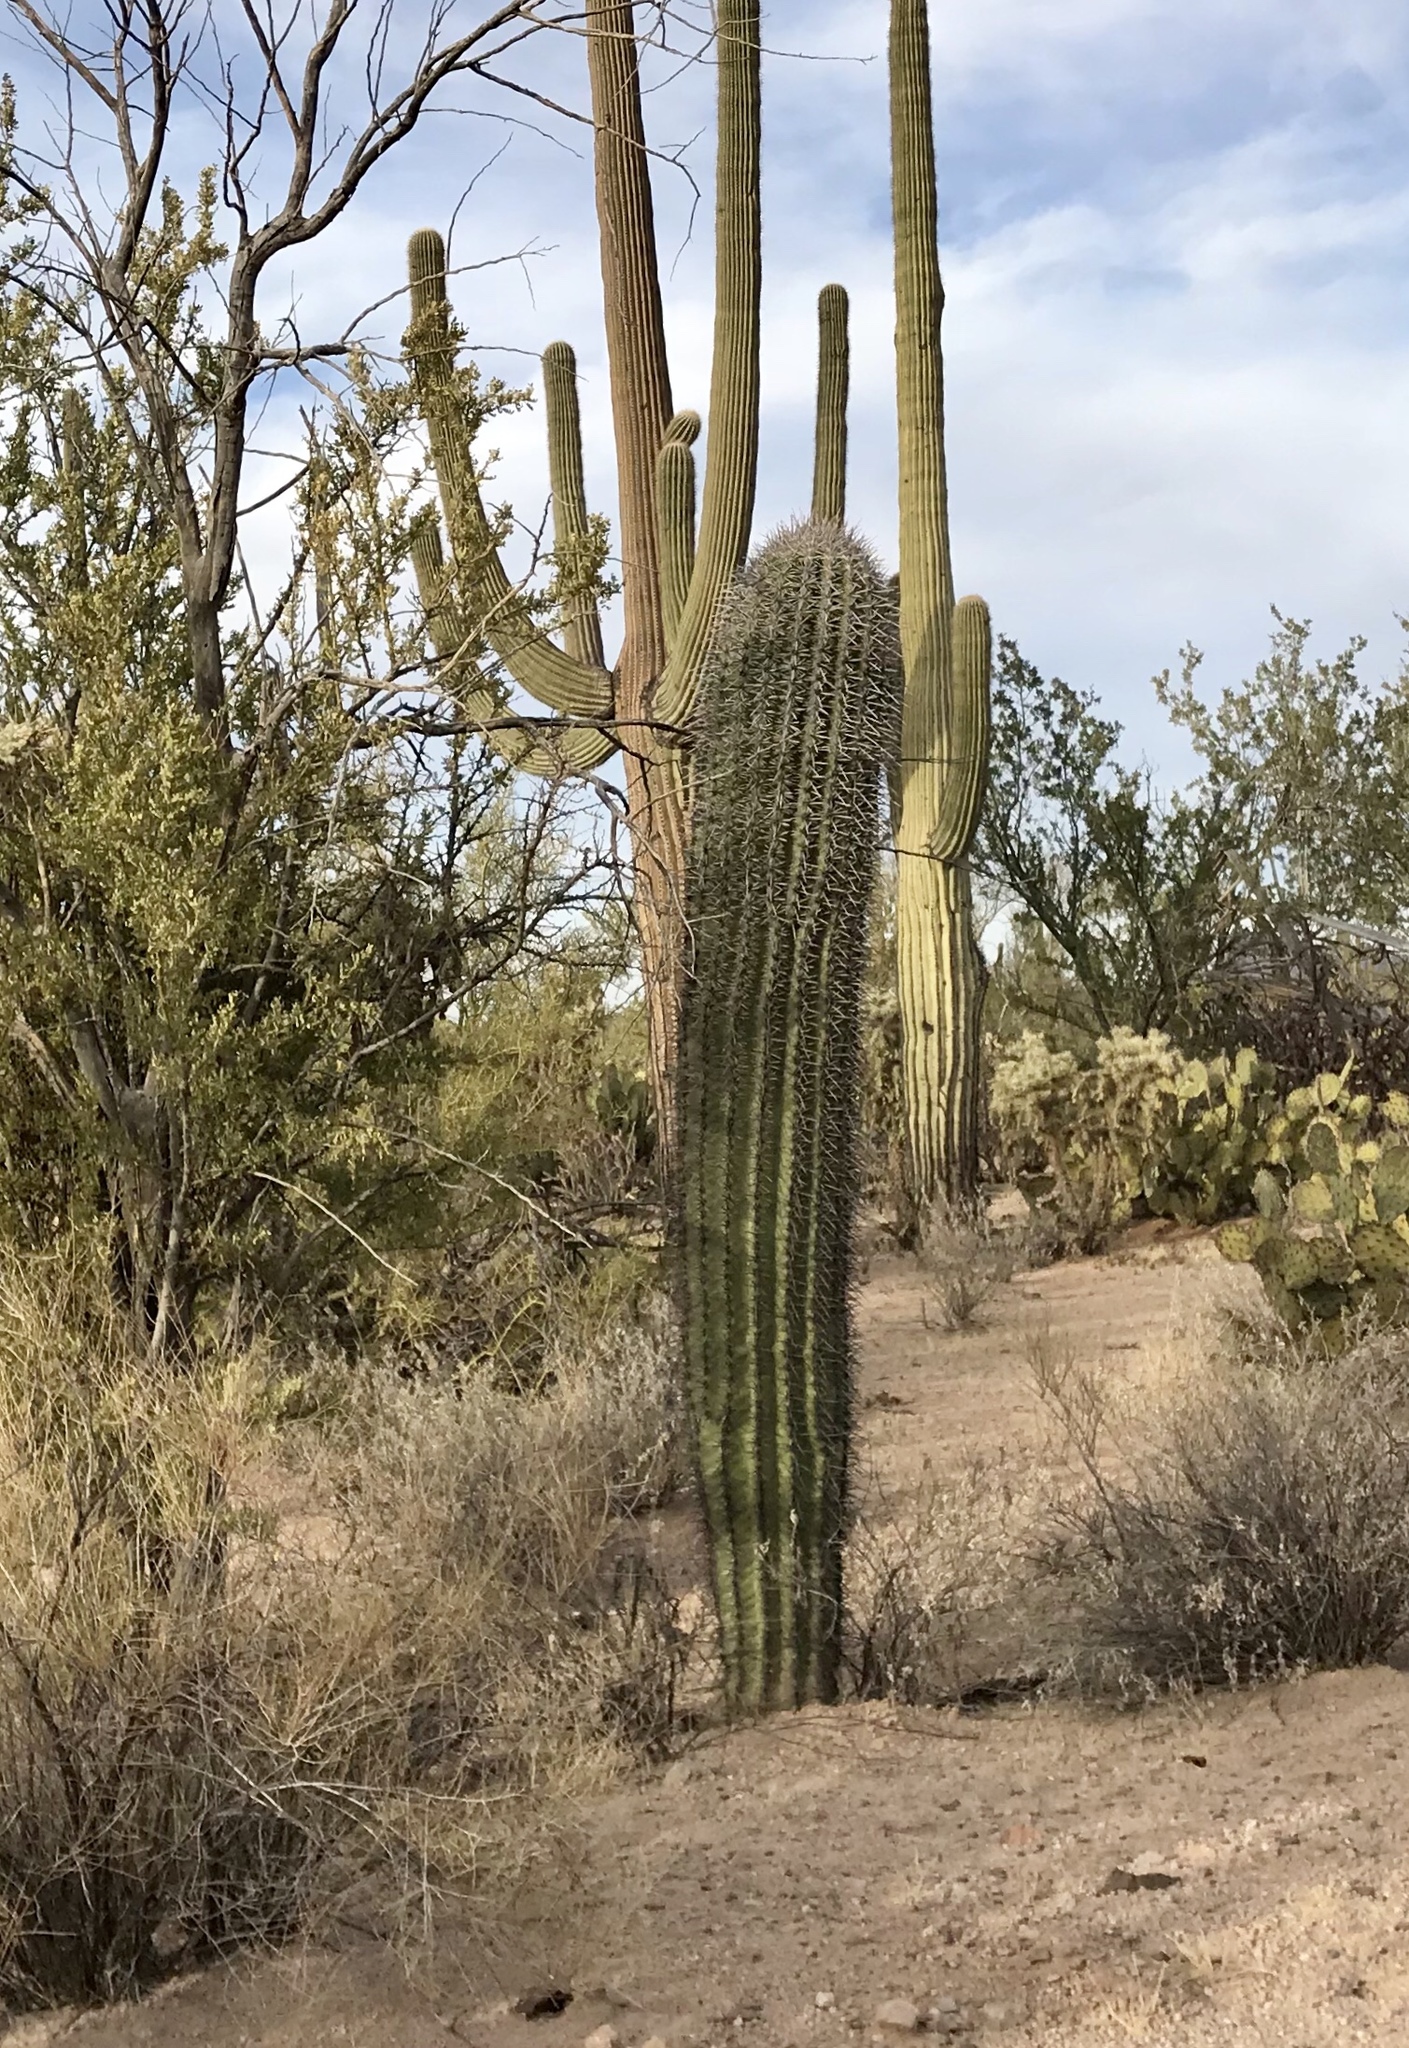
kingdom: Plantae
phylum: Tracheophyta
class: Magnoliopsida
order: Caryophyllales
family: Cactaceae
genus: Carnegiea
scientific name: Carnegiea gigantea
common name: Saguaro
